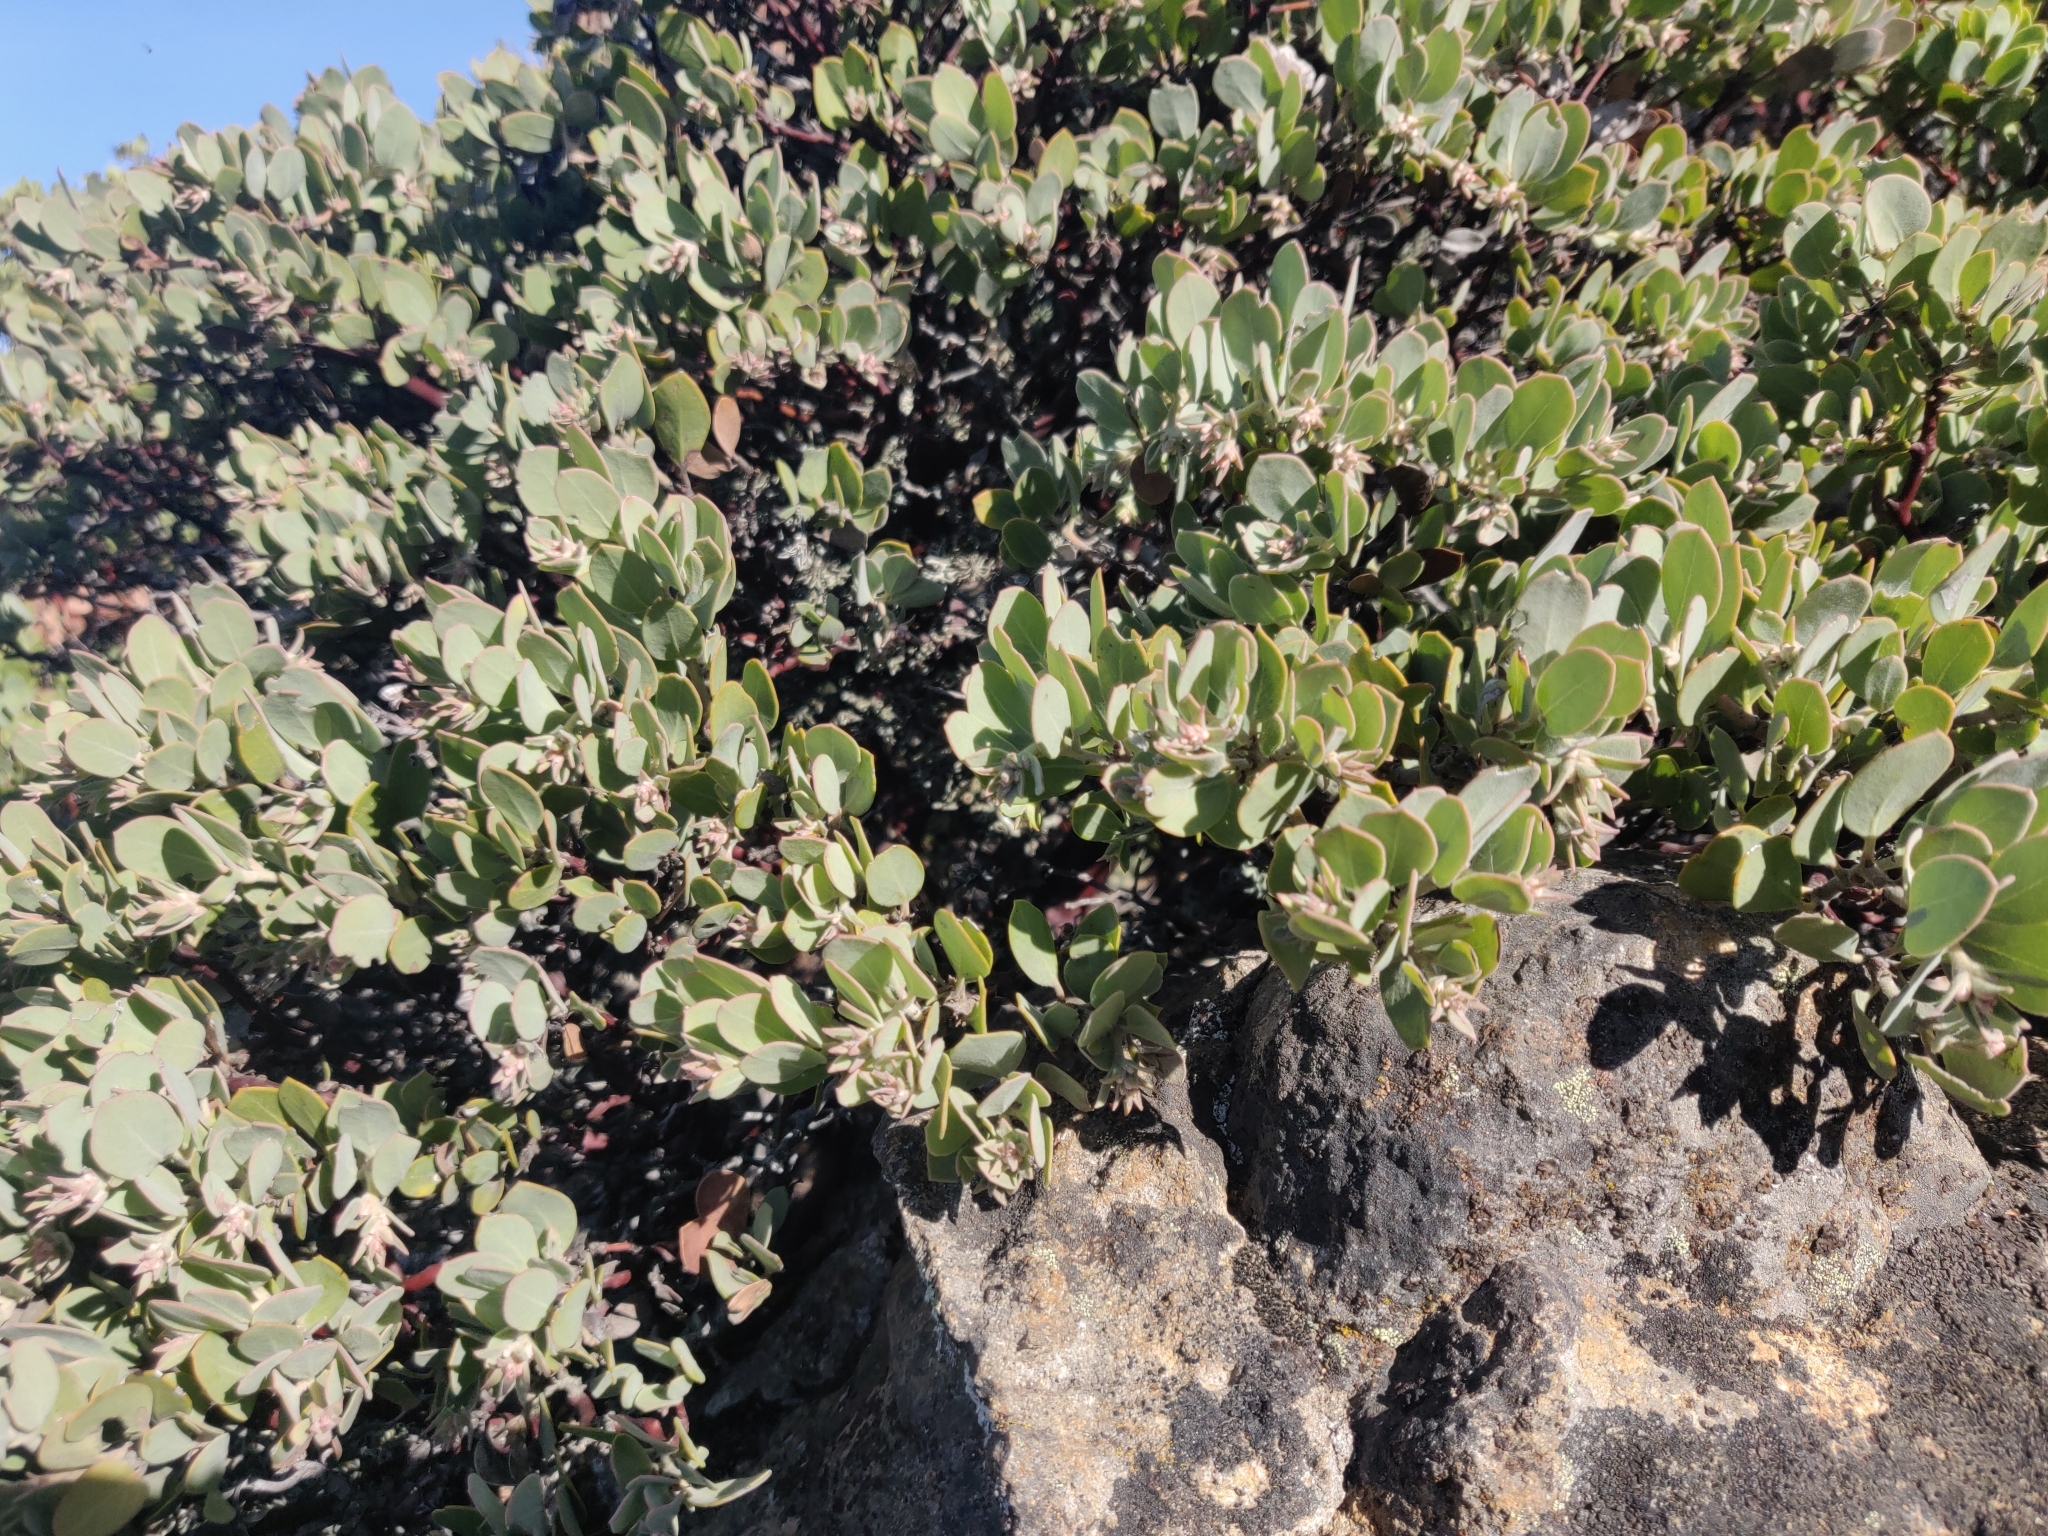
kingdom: Plantae
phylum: Tracheophyta
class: Magnoliopsida
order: Ericales
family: Ericaceae
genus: Arctostaphylos
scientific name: Arctostaphylos canescens
